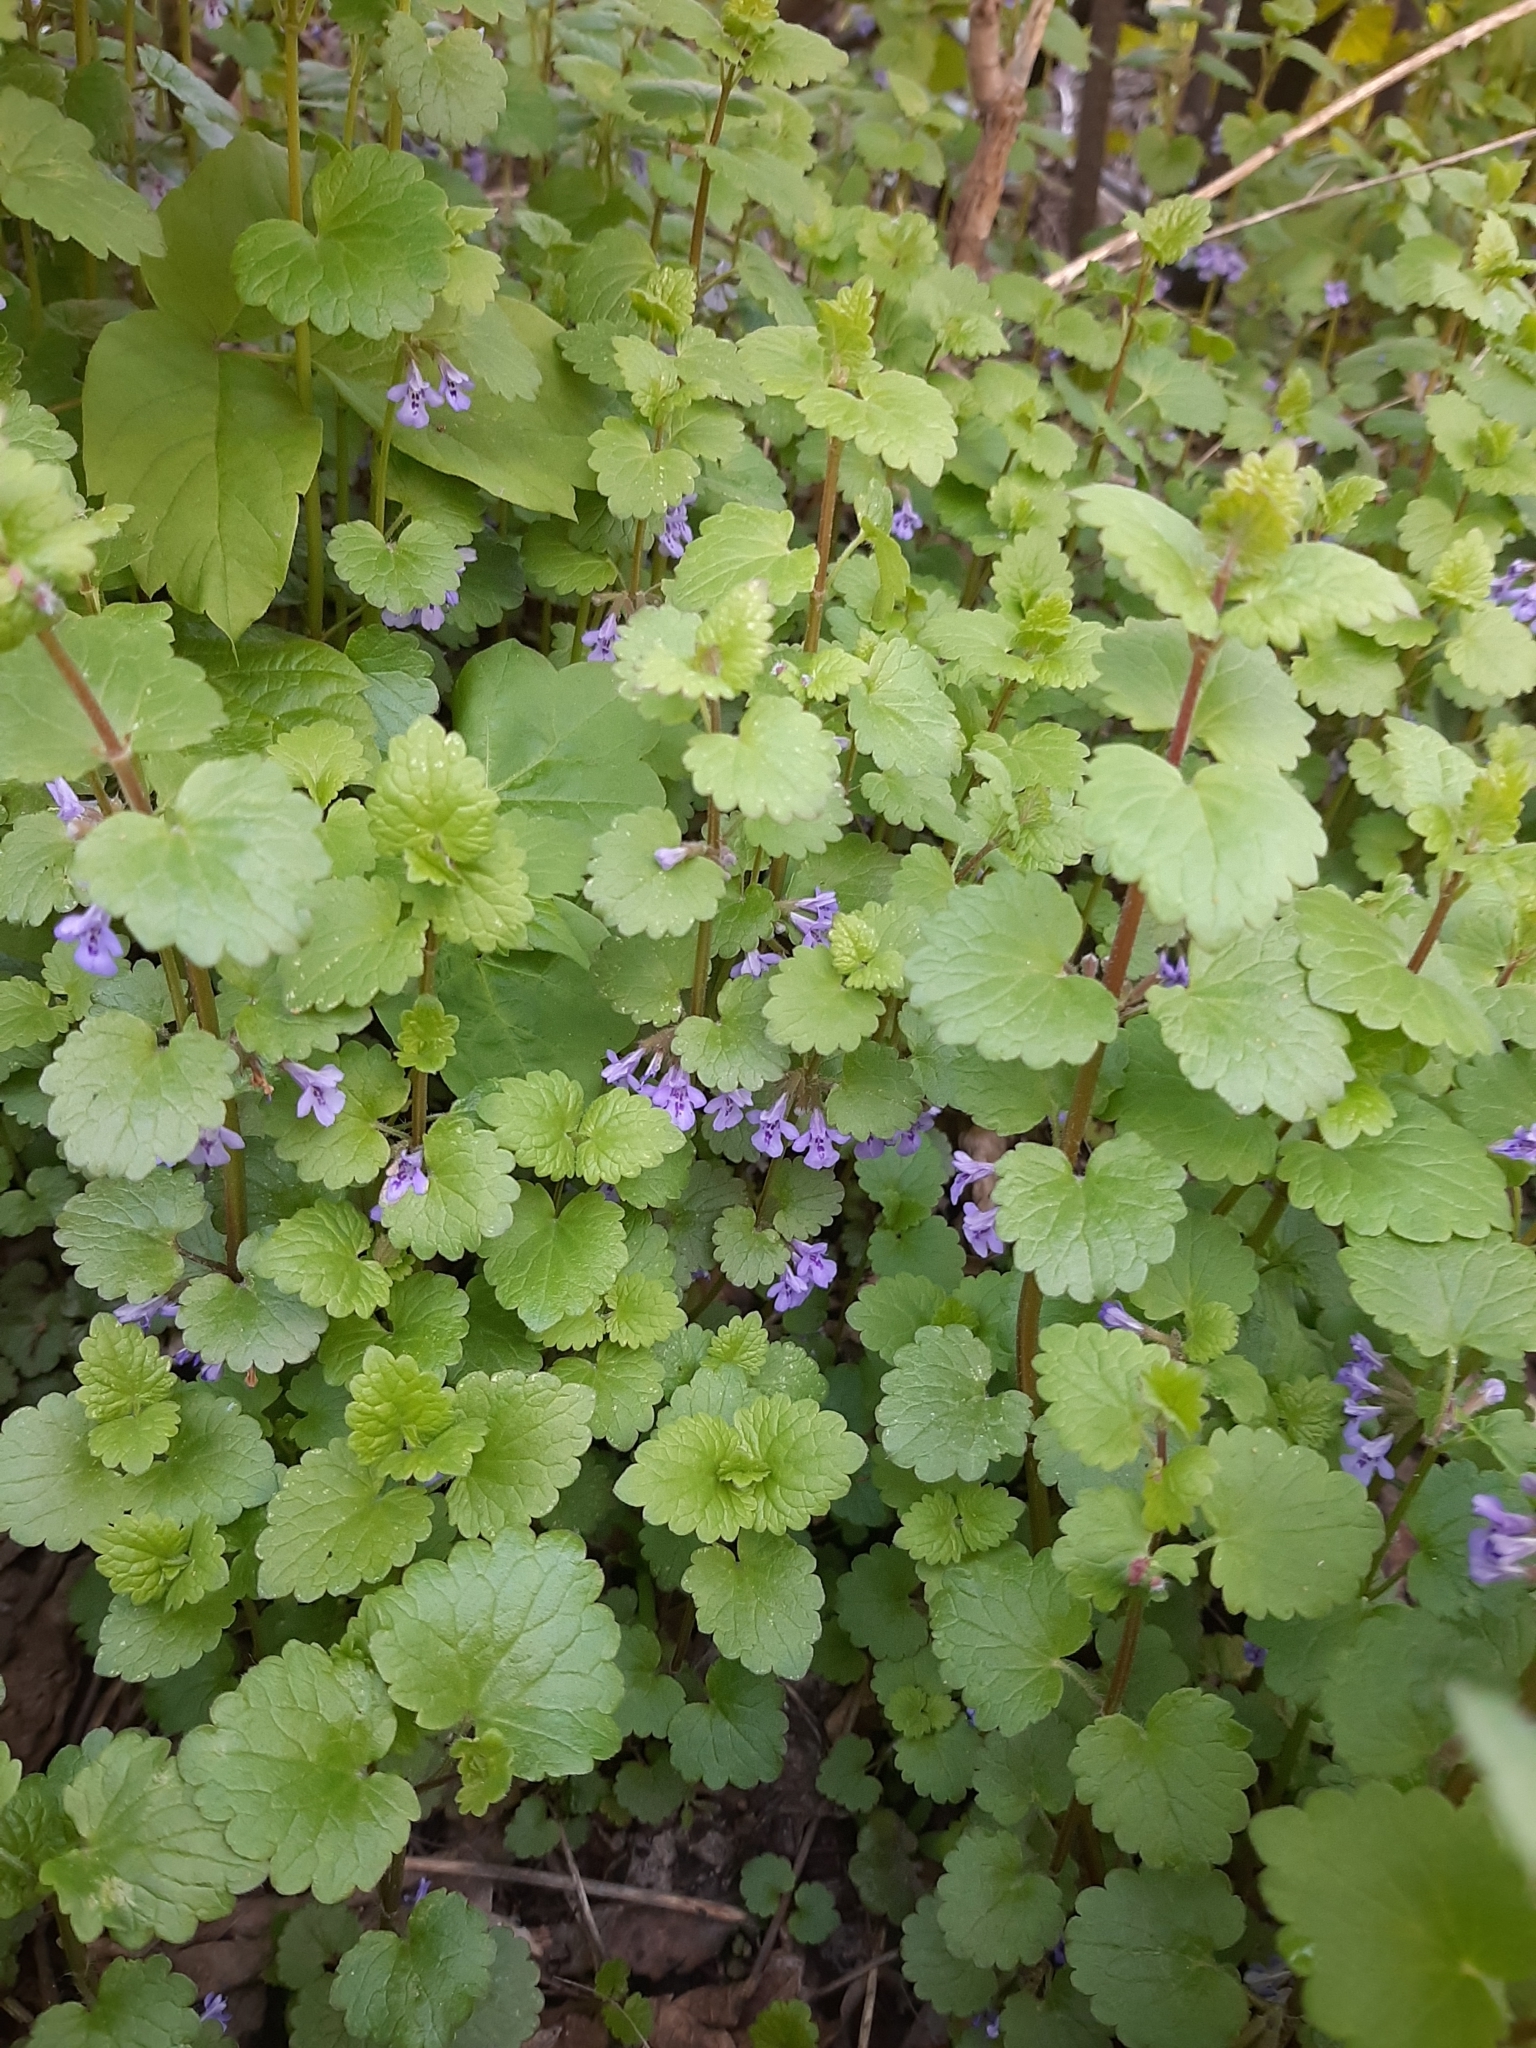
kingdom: Plantae
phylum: Tracheophyta
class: Magnoliopsida
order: Lamiales
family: Lamiaceae
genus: Glechoma
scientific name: Glechoma hederacea
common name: Ground ivy
